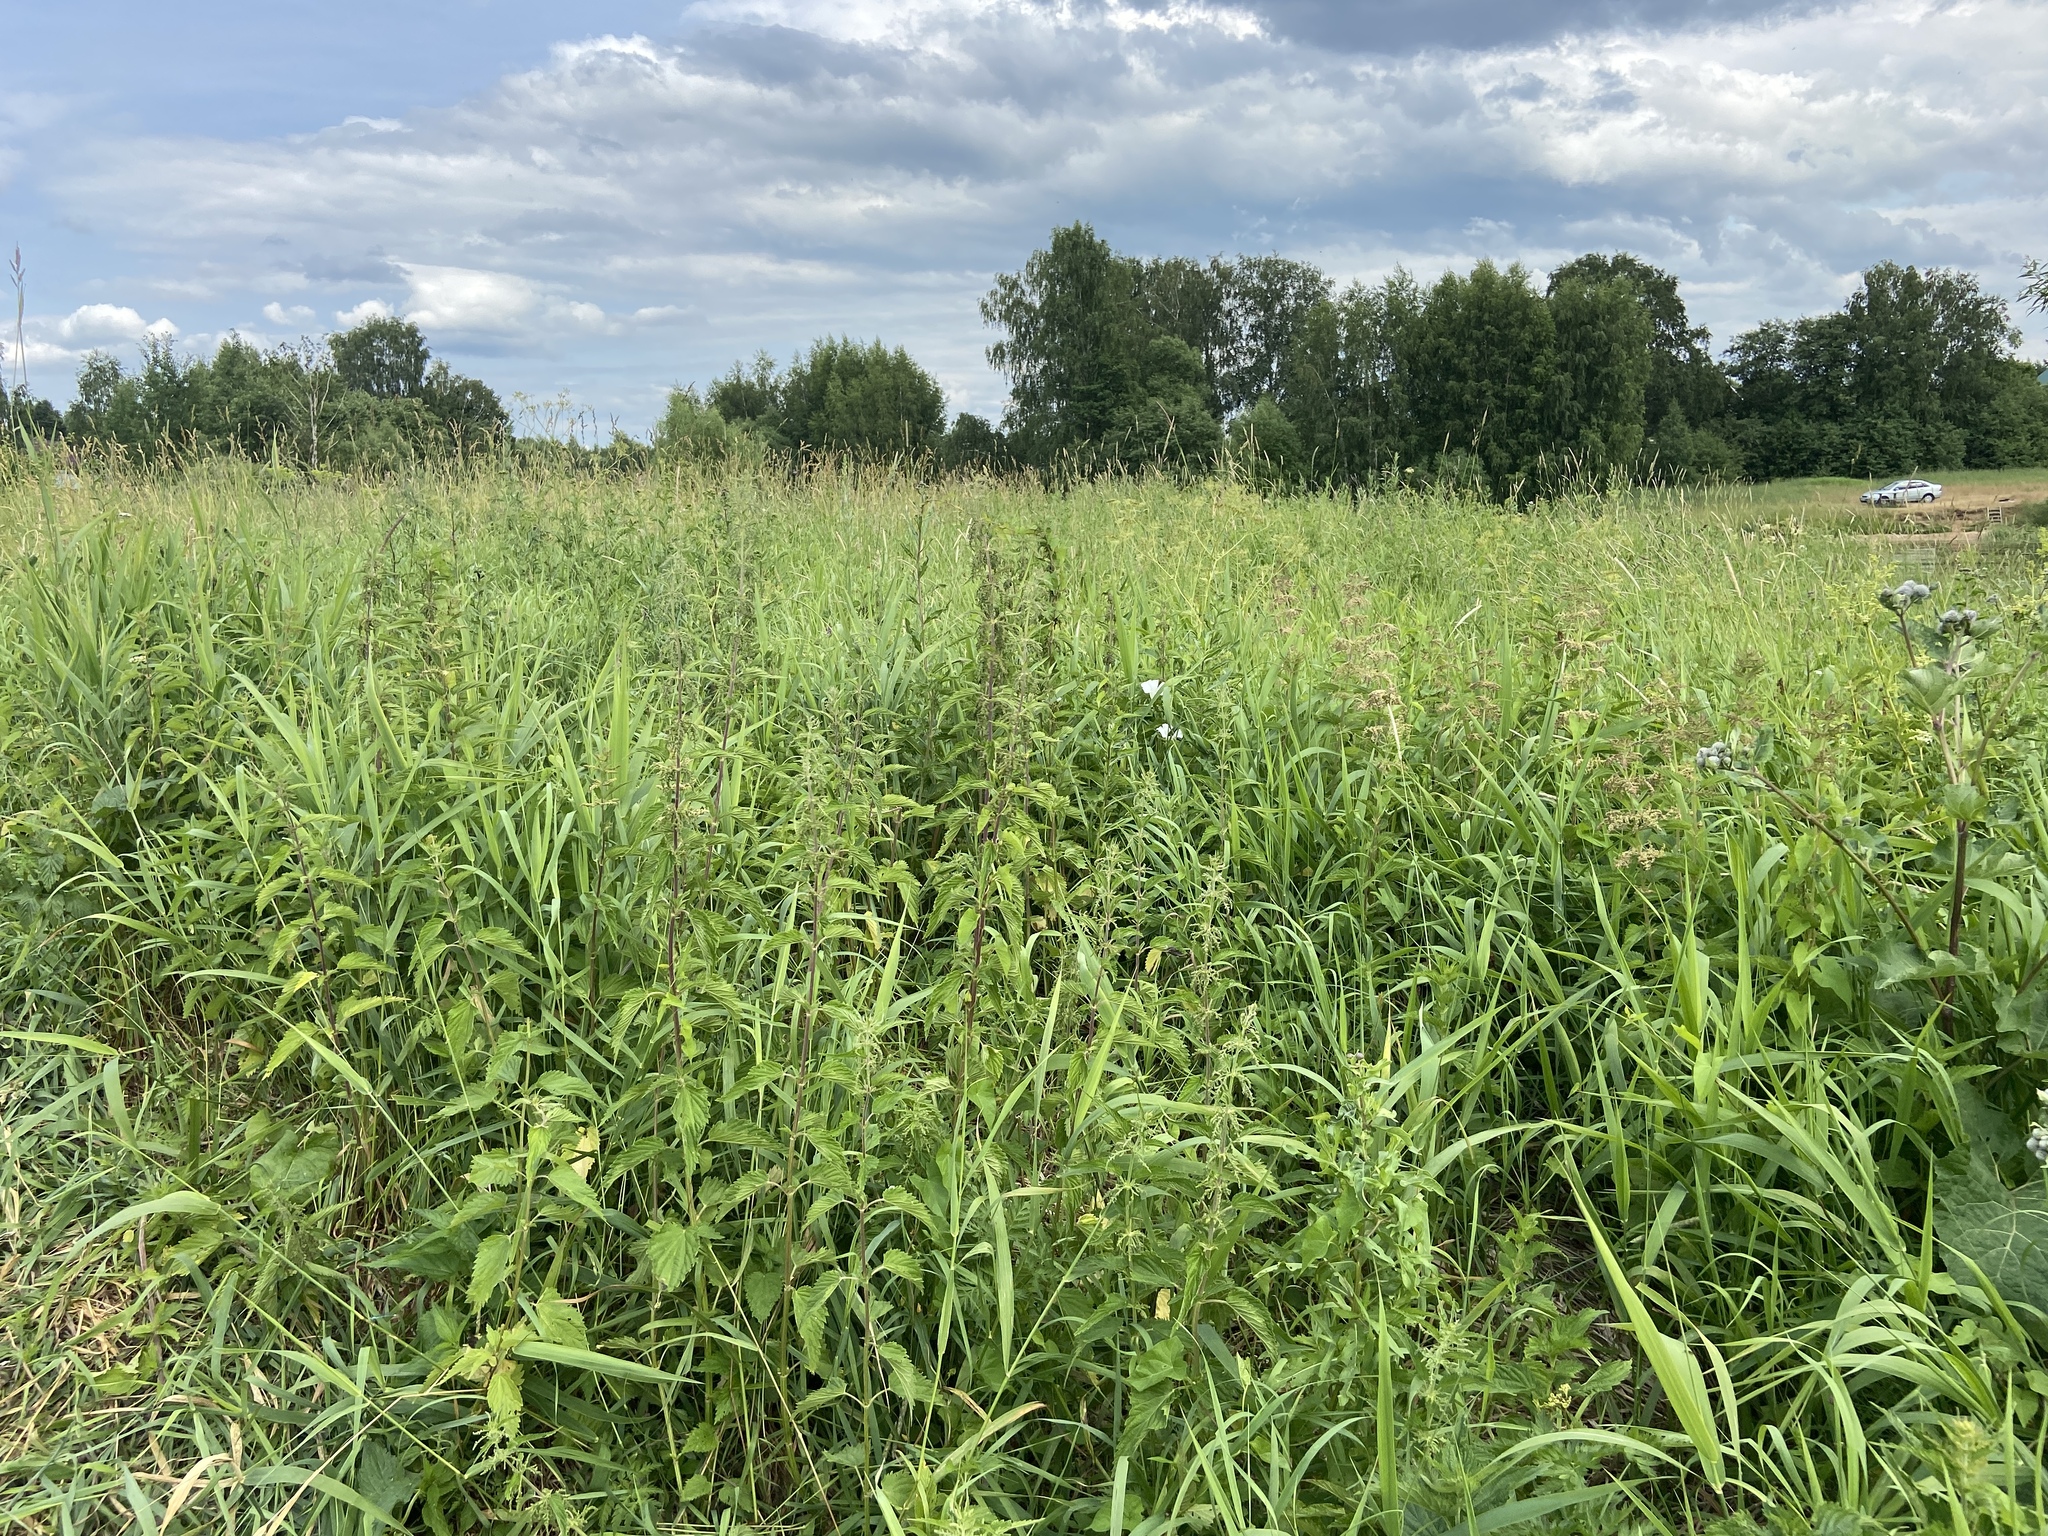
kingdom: Plantae
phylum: Tracheophyta
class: Magnoliopsida
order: Rosales
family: Urticaceae
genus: Urtica
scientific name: Urtica dioica
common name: Common nettle
